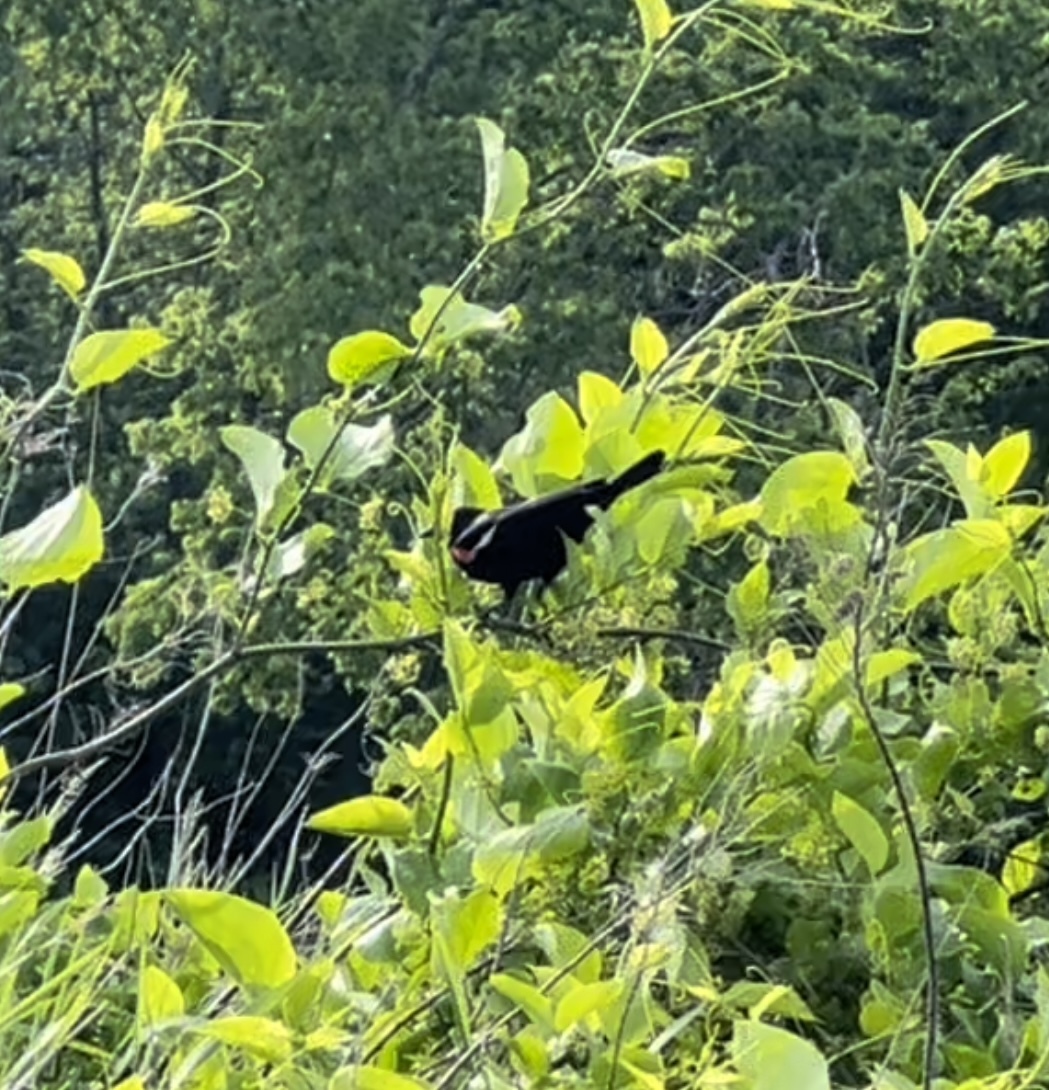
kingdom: Animalia
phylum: Chordata
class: Aves
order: Passeriformes
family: Icteridae
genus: Agelaius
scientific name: Agelaius phoeniceus
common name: Red-winged blackbird
